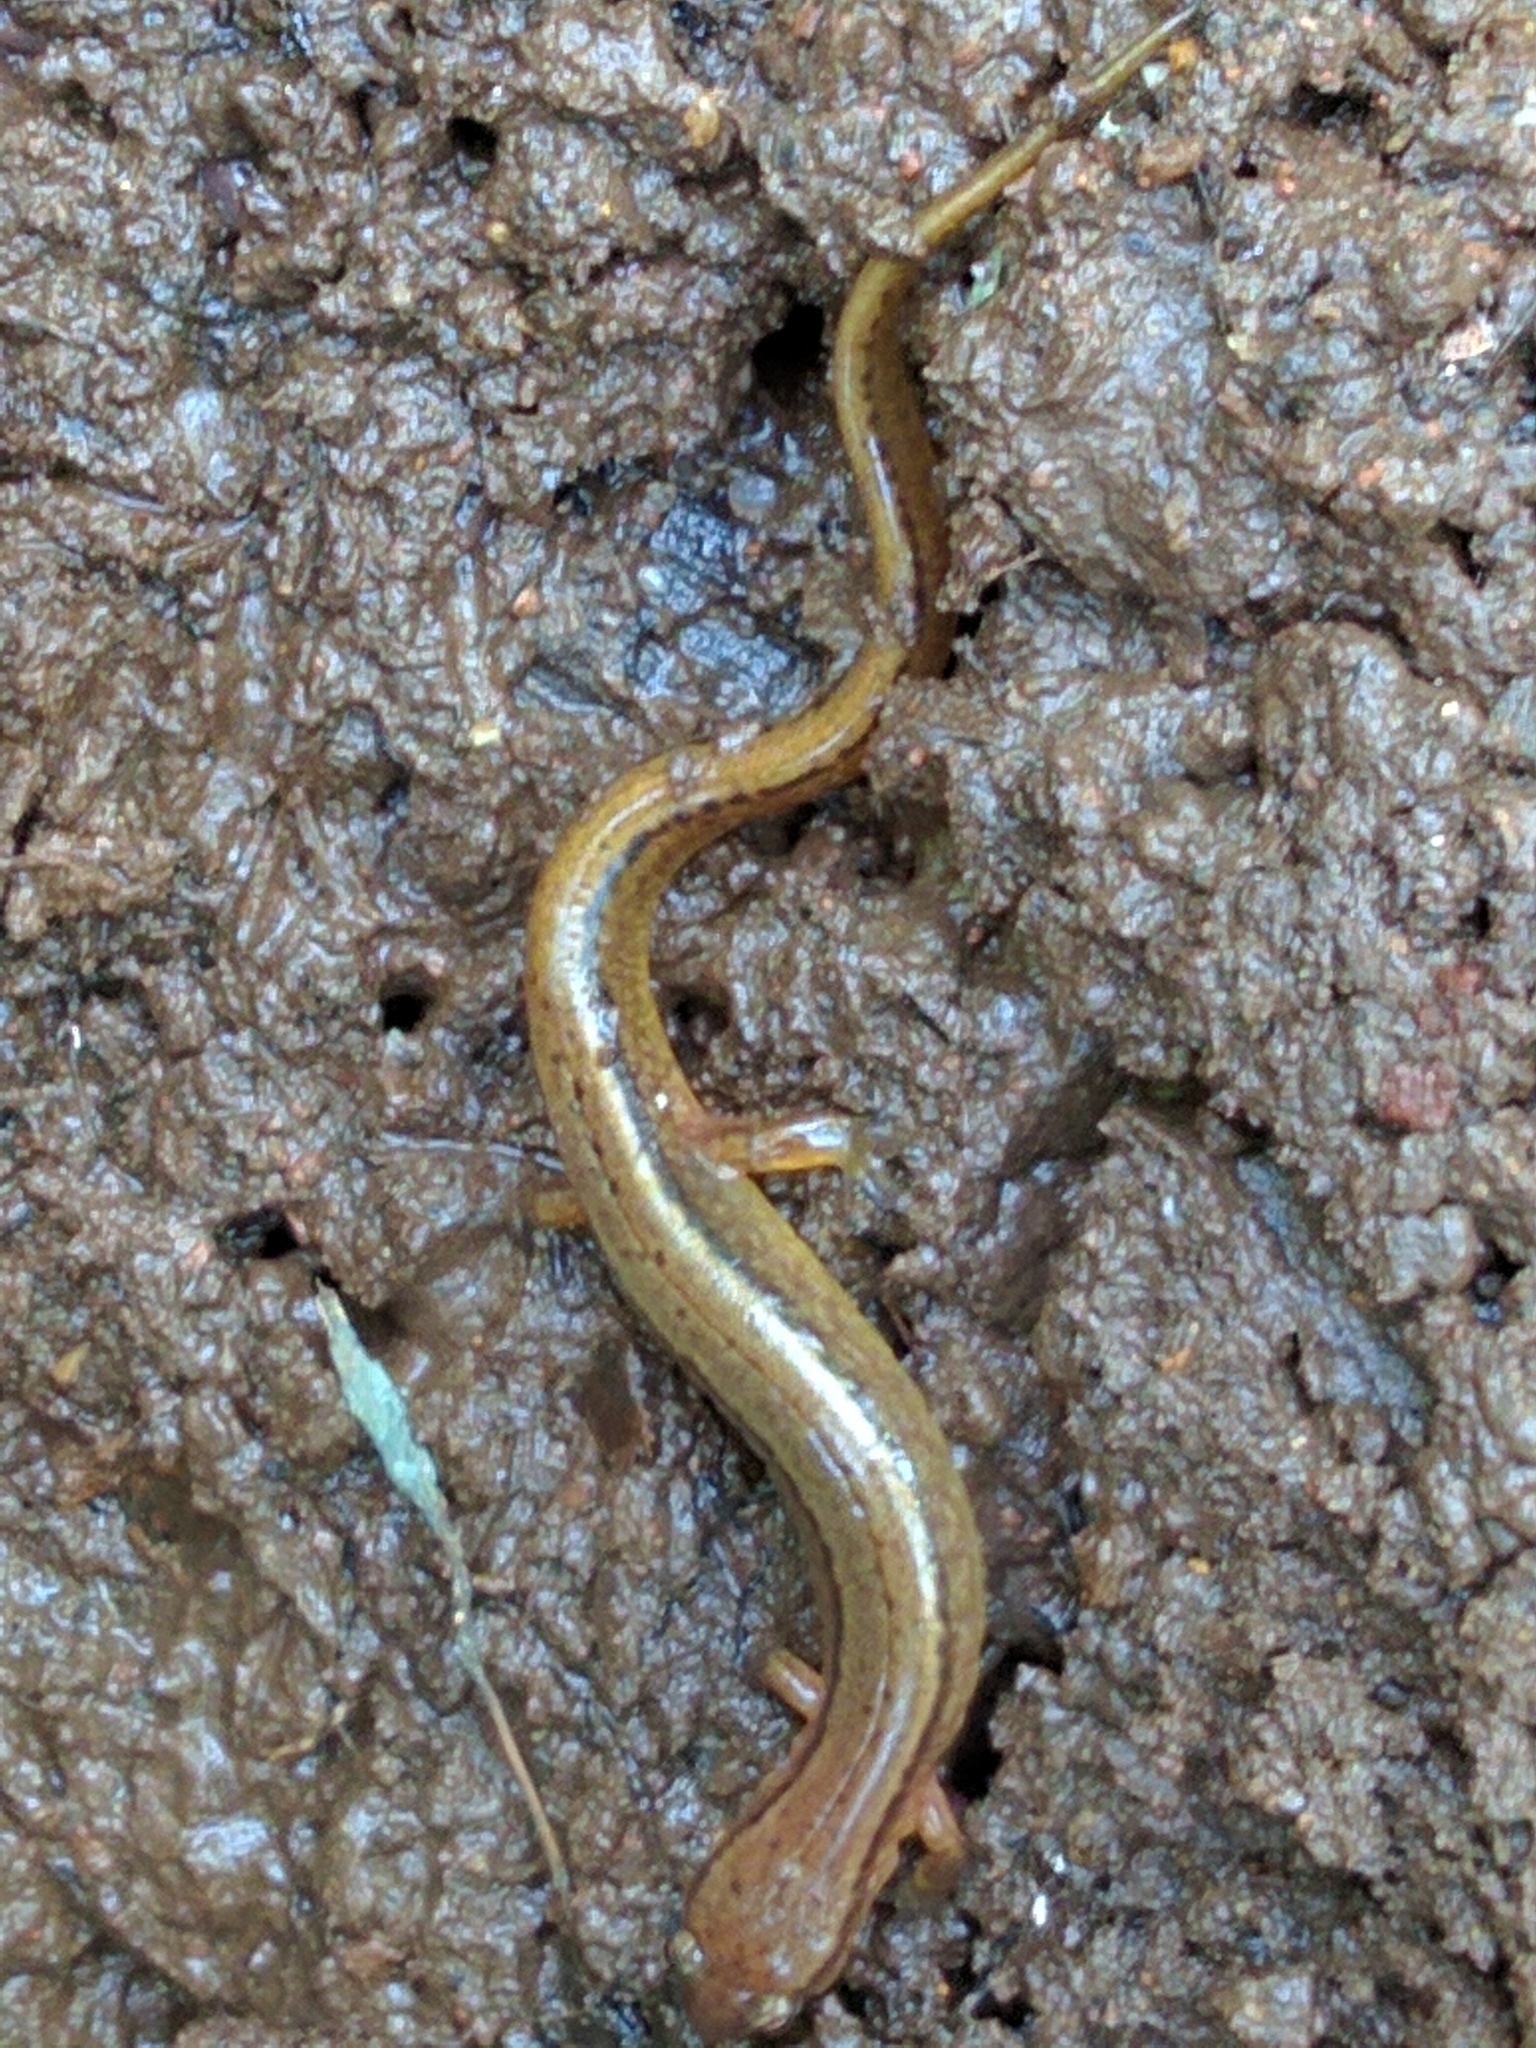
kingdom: Animalia
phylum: Chordata
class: Amphibia
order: Caudata
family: Plethodontidae
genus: Eurycea
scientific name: Eurycea bislineata
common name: Northern two-lined salamander
